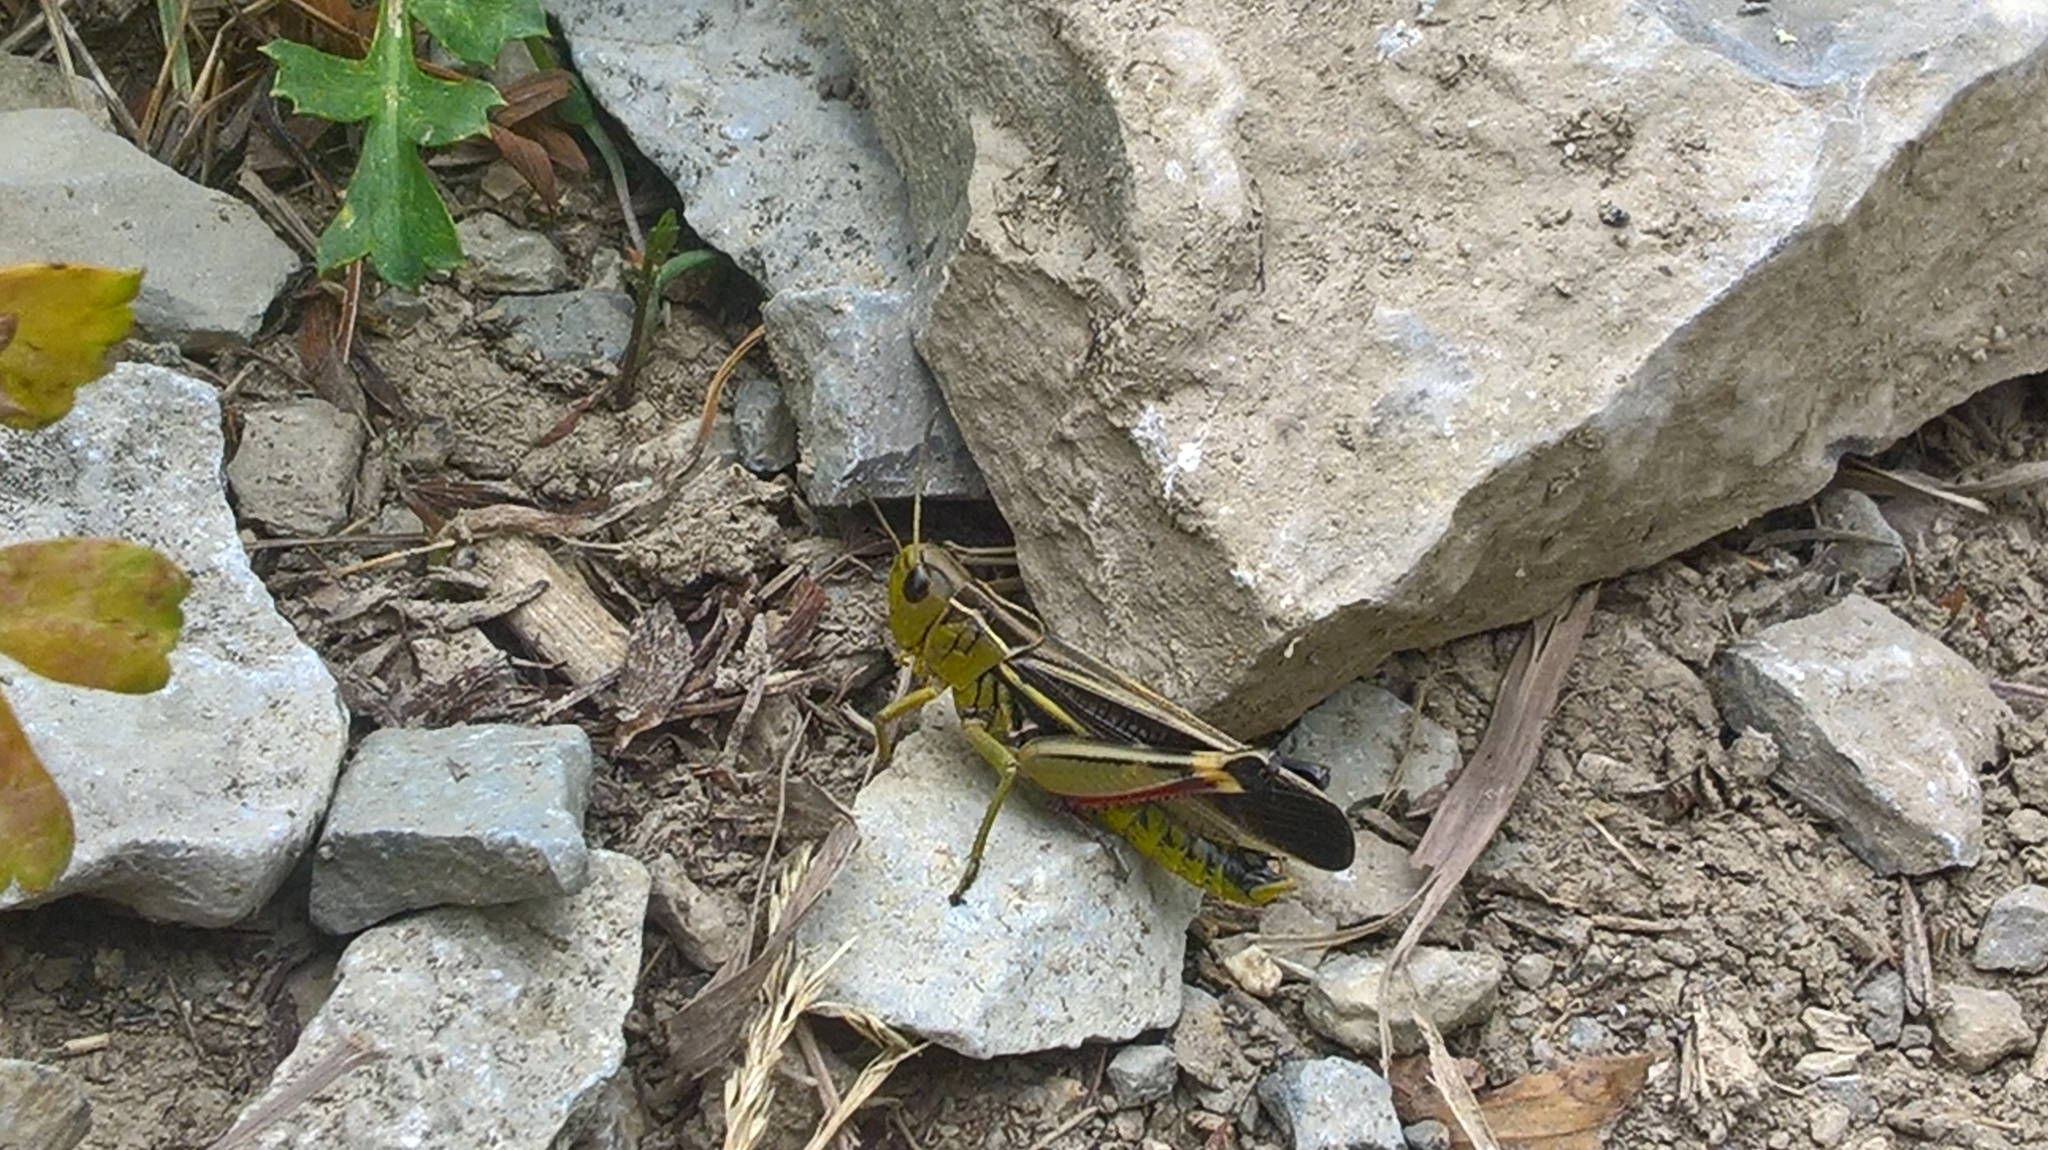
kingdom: Animalia
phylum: Arthropoda
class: Insecta
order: Orthoptera
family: Acrididae
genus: Arcyptera
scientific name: Arcyptera fusca
